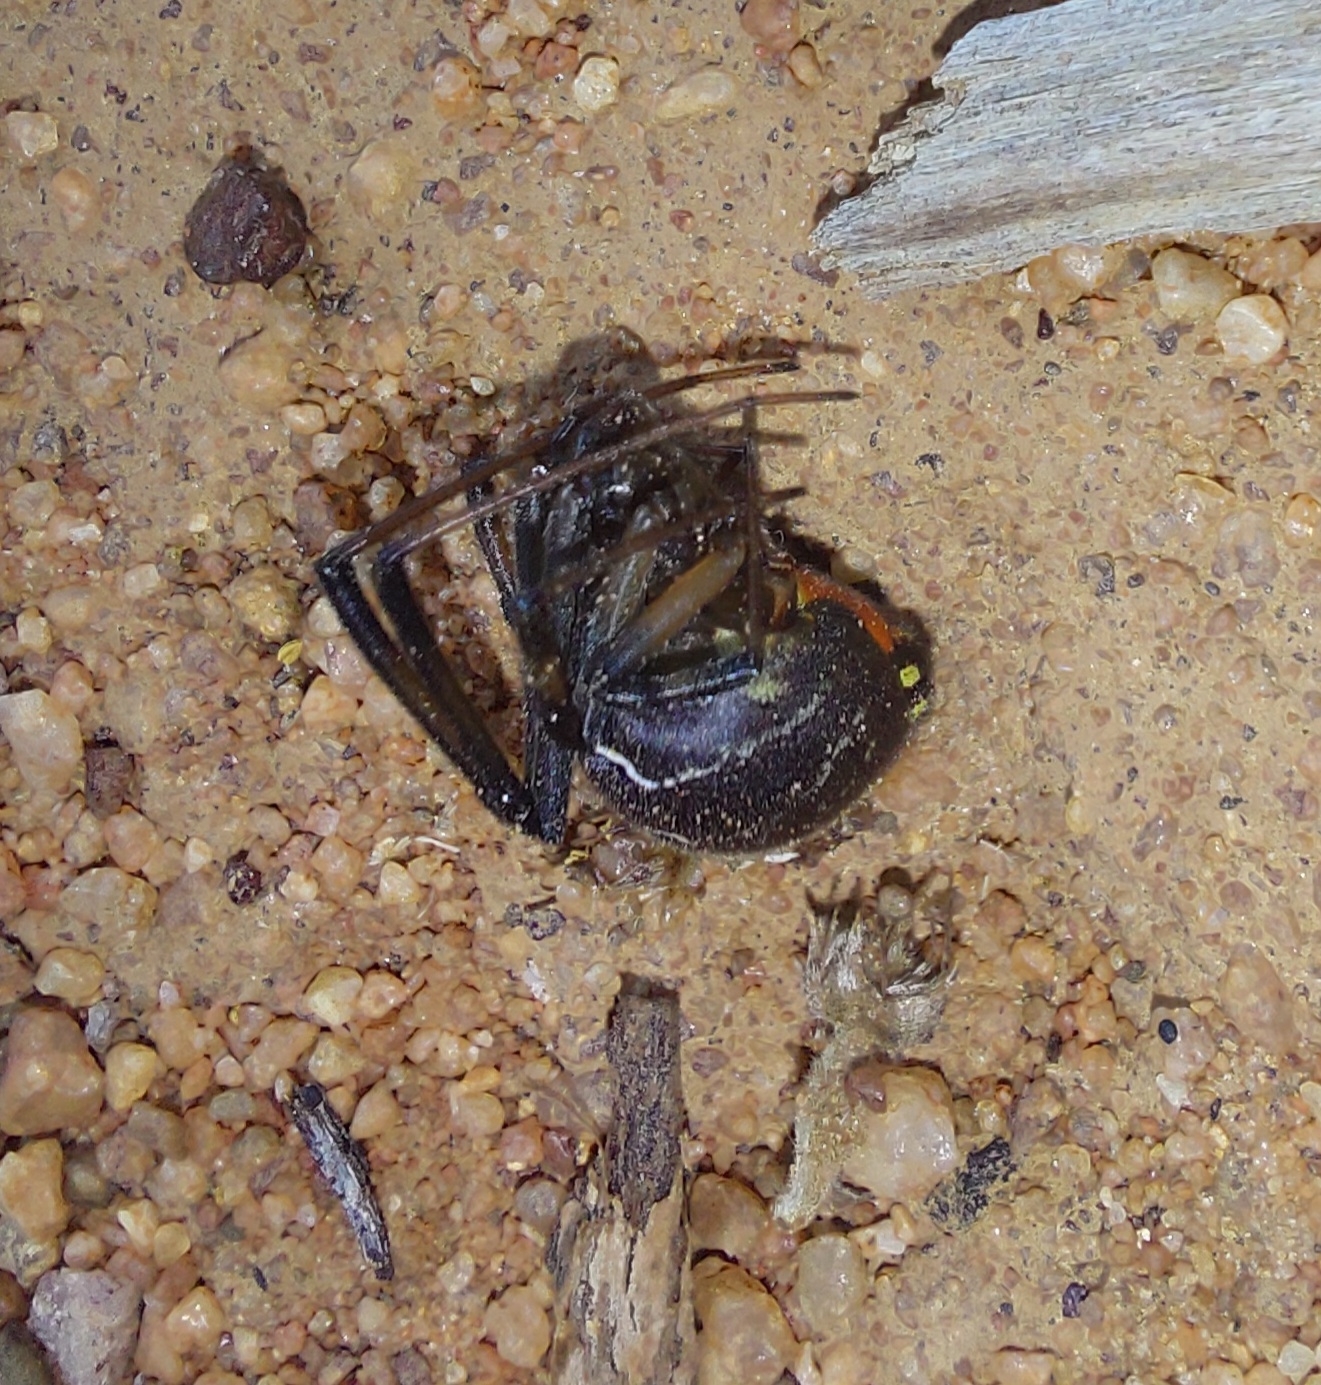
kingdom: Animalia
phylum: Arthropoda
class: Arachnida
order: Araneae
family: Theridiidae
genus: Latrodectus
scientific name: Latrodectus geometricus
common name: Brown widow spider
